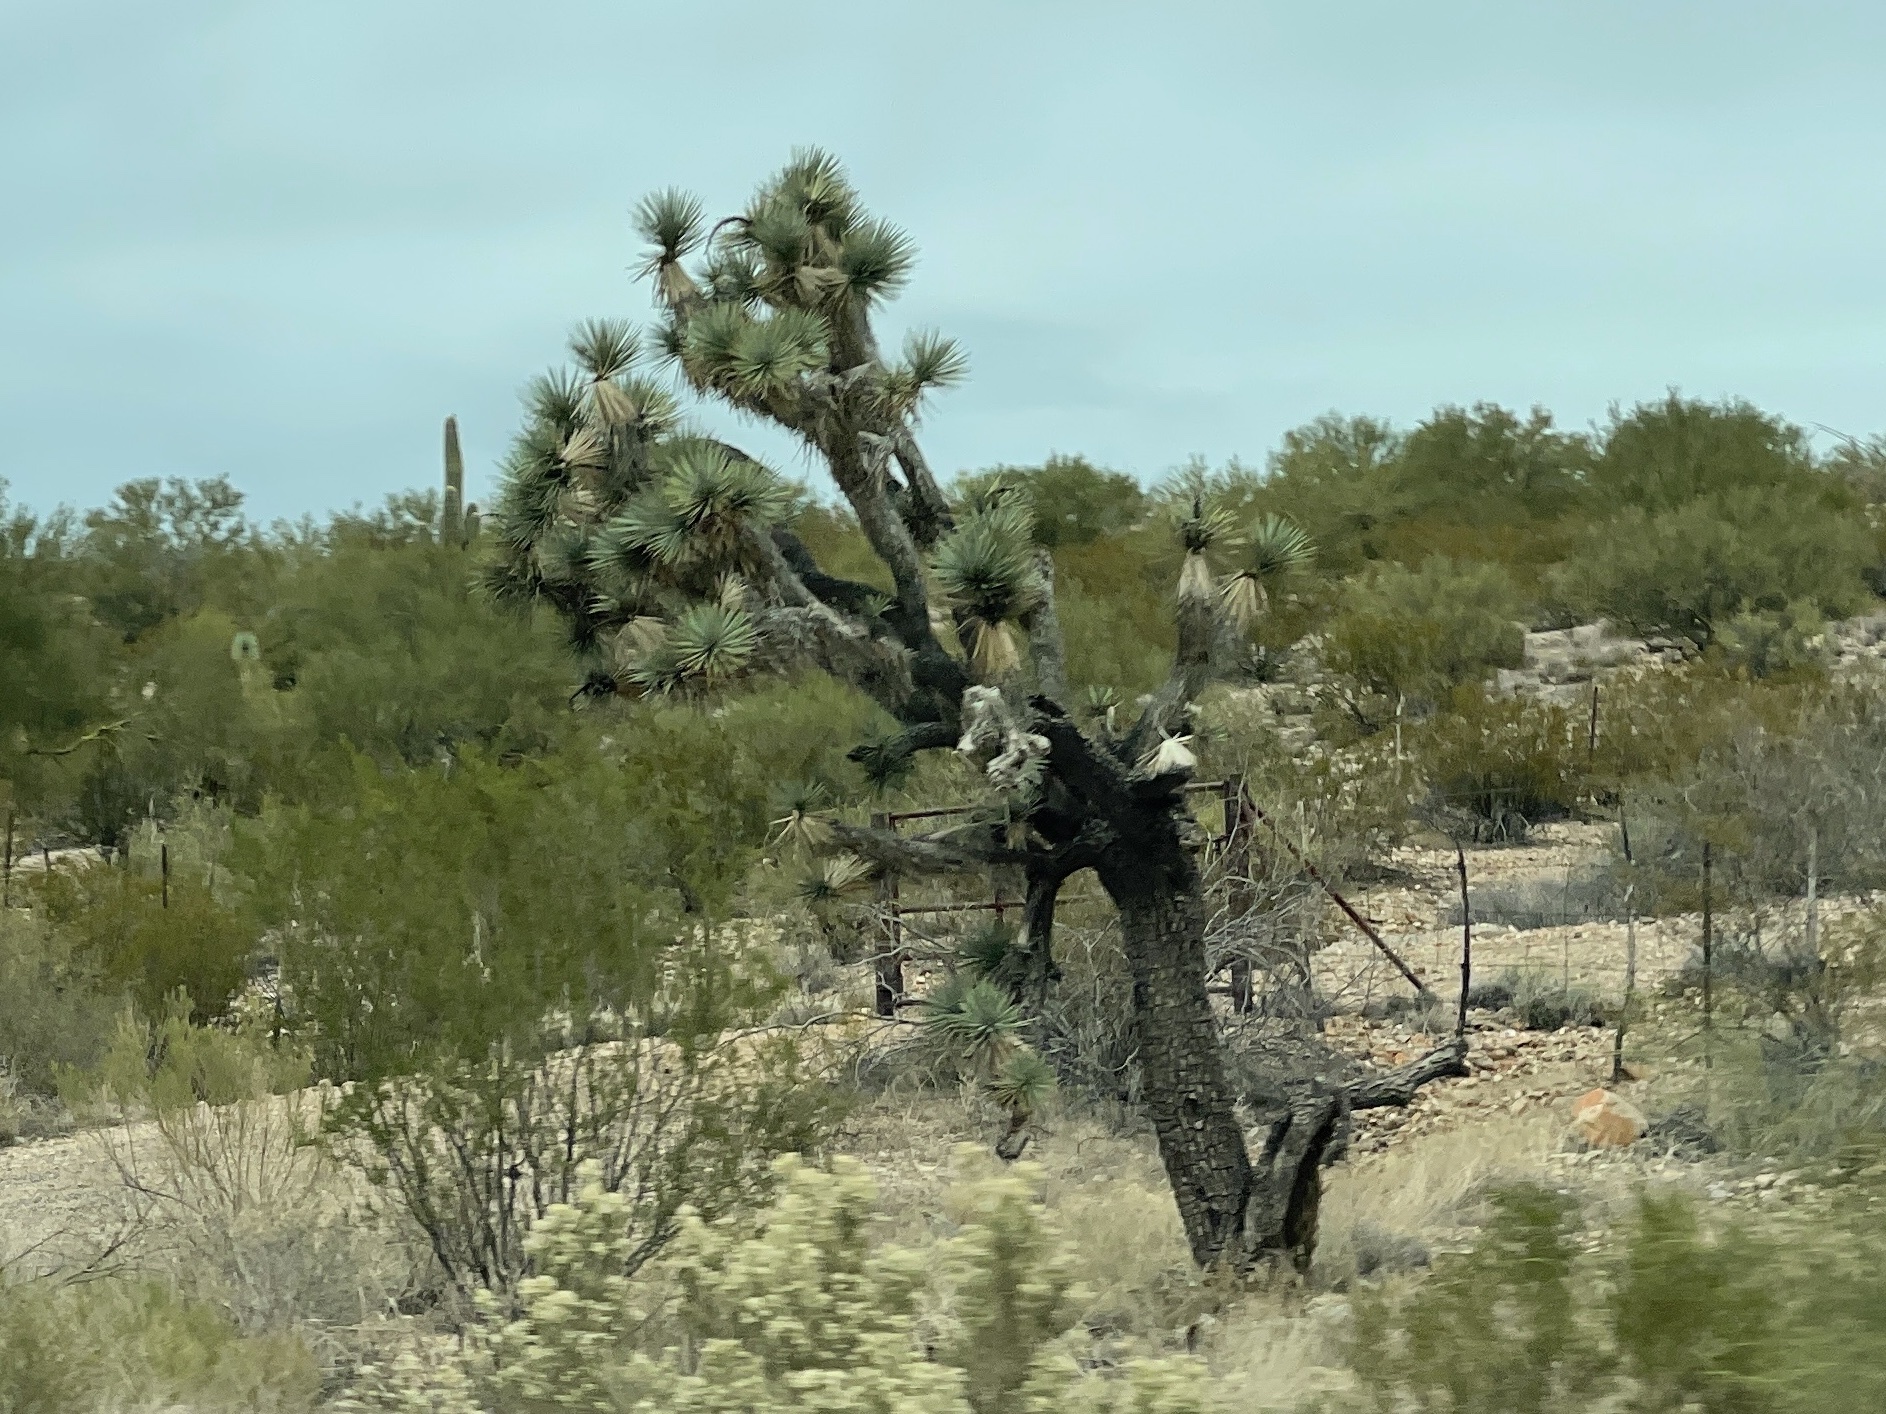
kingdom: Plantae
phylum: Tracheophyta
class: Liliopsida
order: Asparagales
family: Asparagaceae
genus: Yucca
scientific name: Yucca brevifolia
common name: Joshua tree
